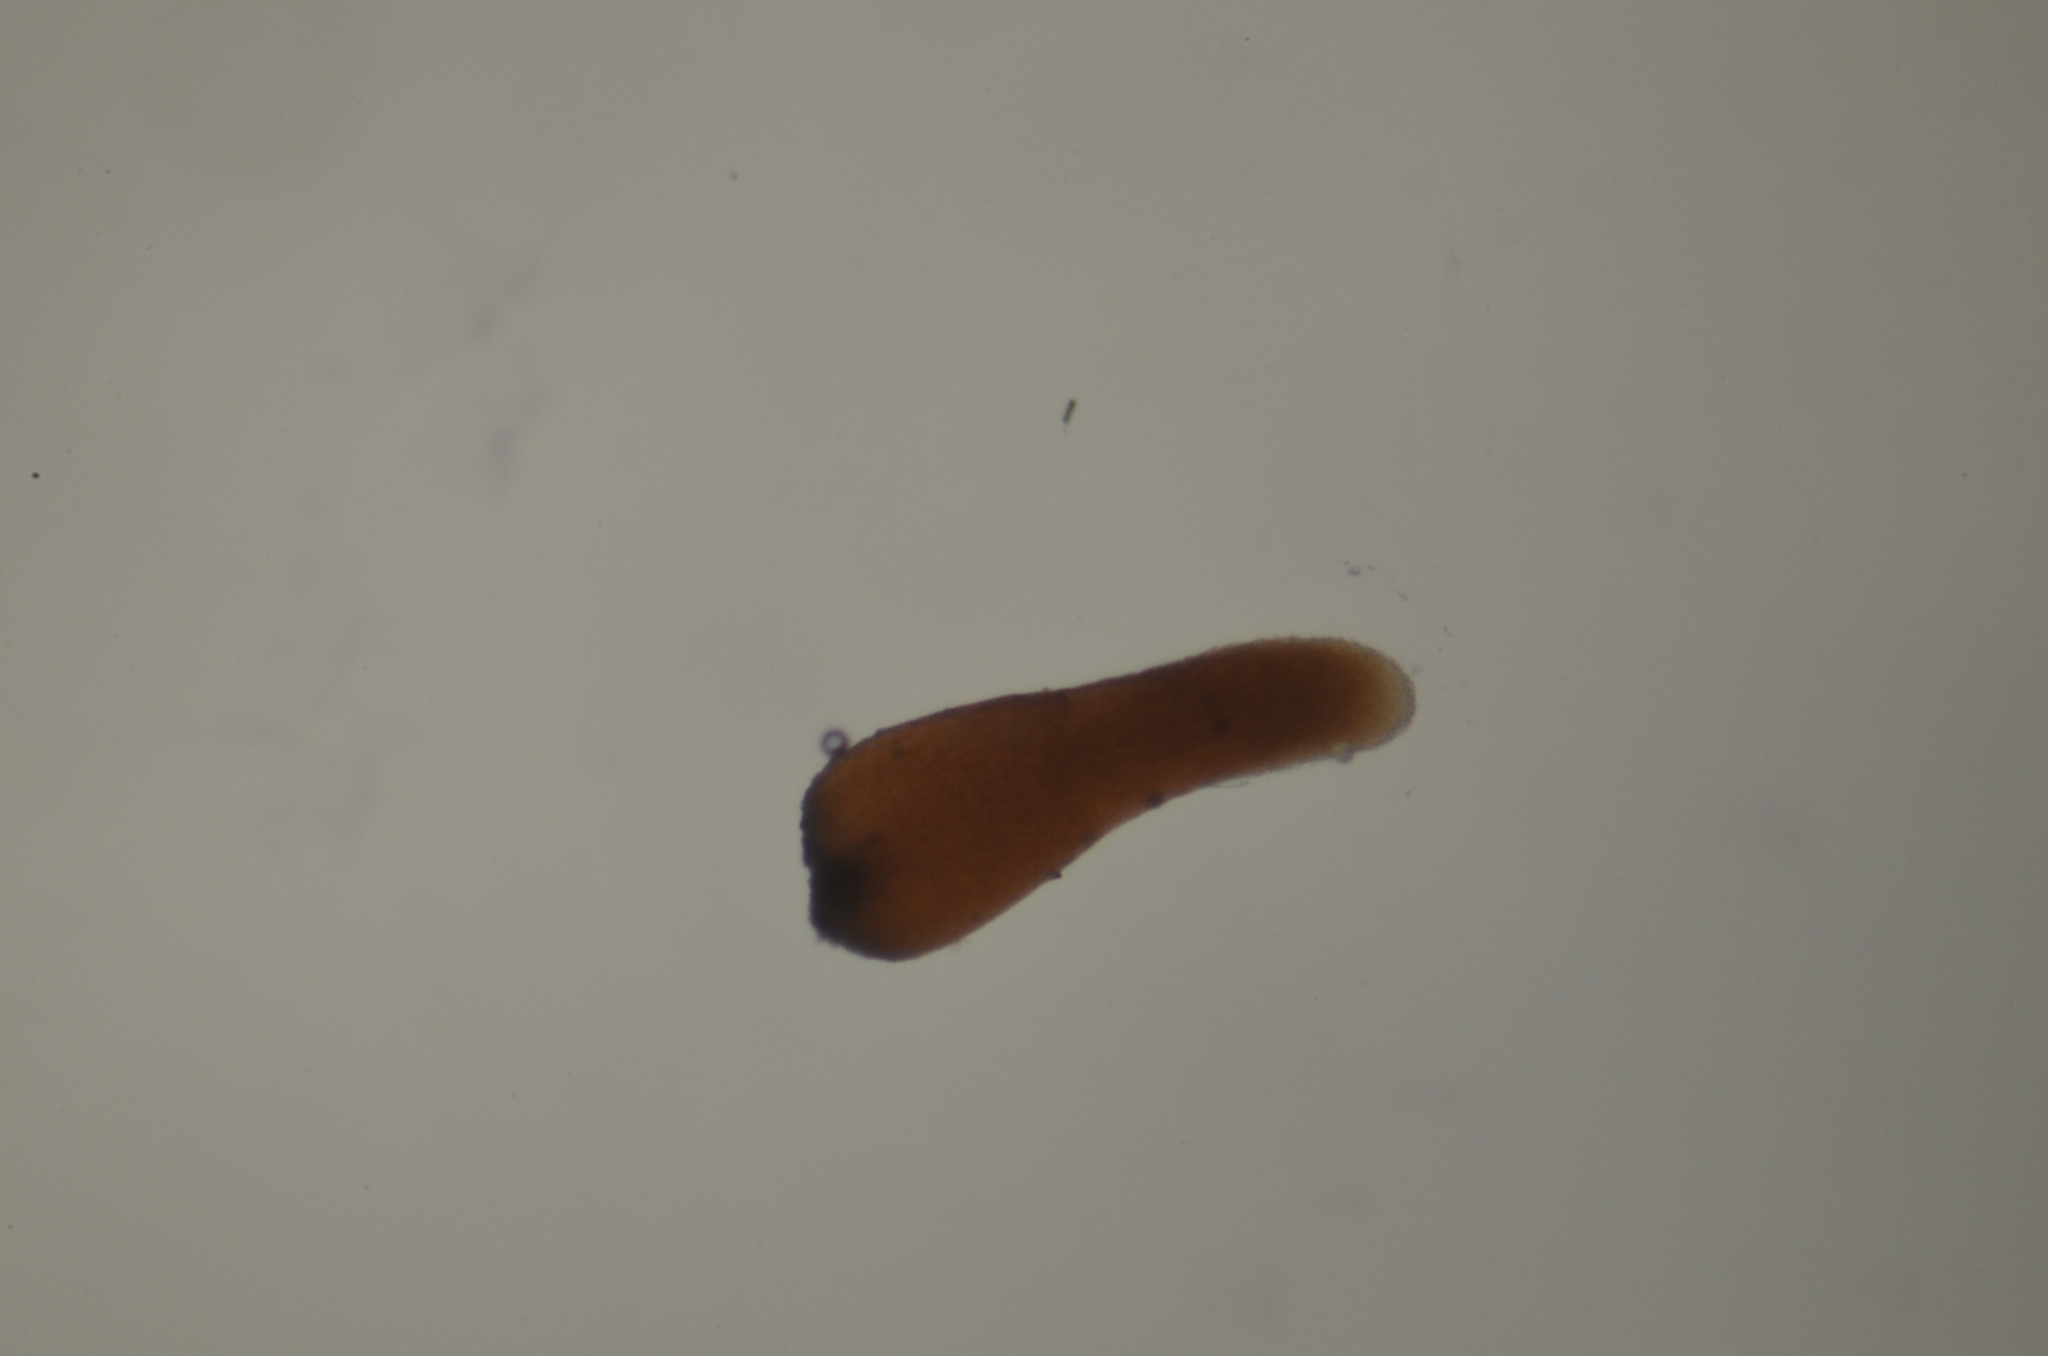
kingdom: Fungi
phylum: Basidiomycota
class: Dacrymycetes
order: Dacrymycetales
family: Dacryonaemataceae
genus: Dacryonaema
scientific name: Dacryonaema rufum
